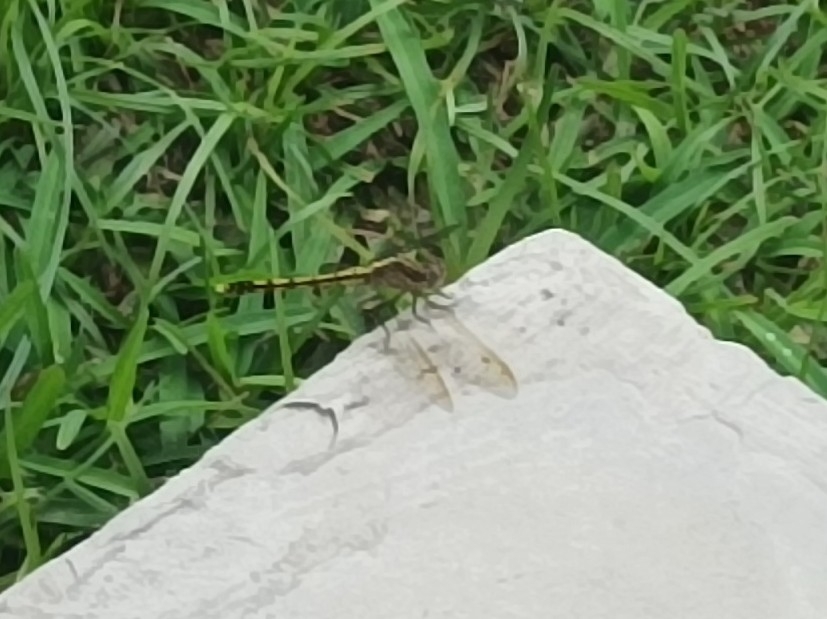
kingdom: Animalia
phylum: Arthropoda
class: Insecta
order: Odonata
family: Libellulidae
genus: Orthetrum
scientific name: Orthetrum caledonicum
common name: Blue skimmer
